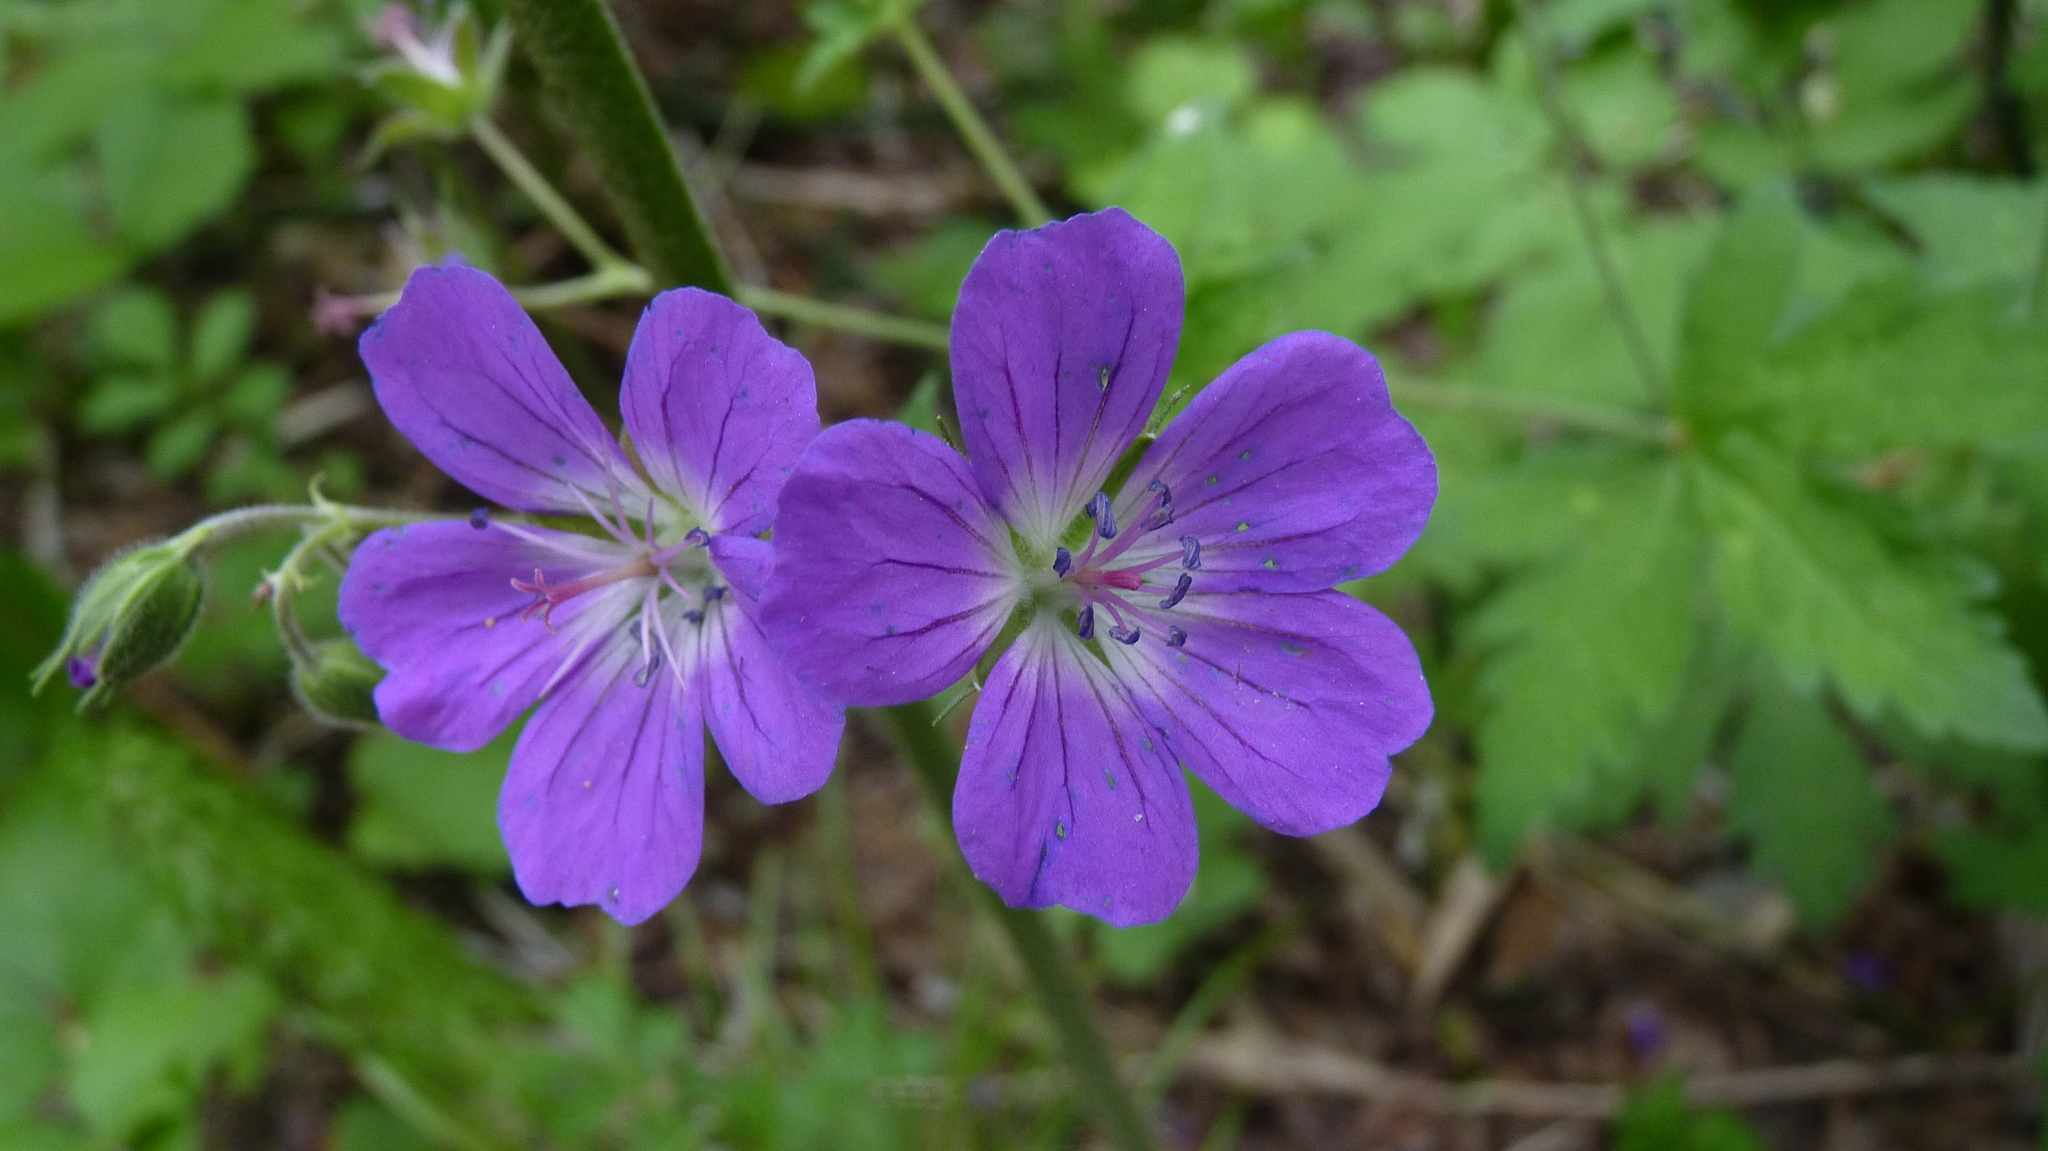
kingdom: Plantae
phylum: Tracheophyta
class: Magnoliopsida
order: Geraniales
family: Geraniaceae
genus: Geranium
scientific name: Geranium sylvaticum
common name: Wood crane's-bill
